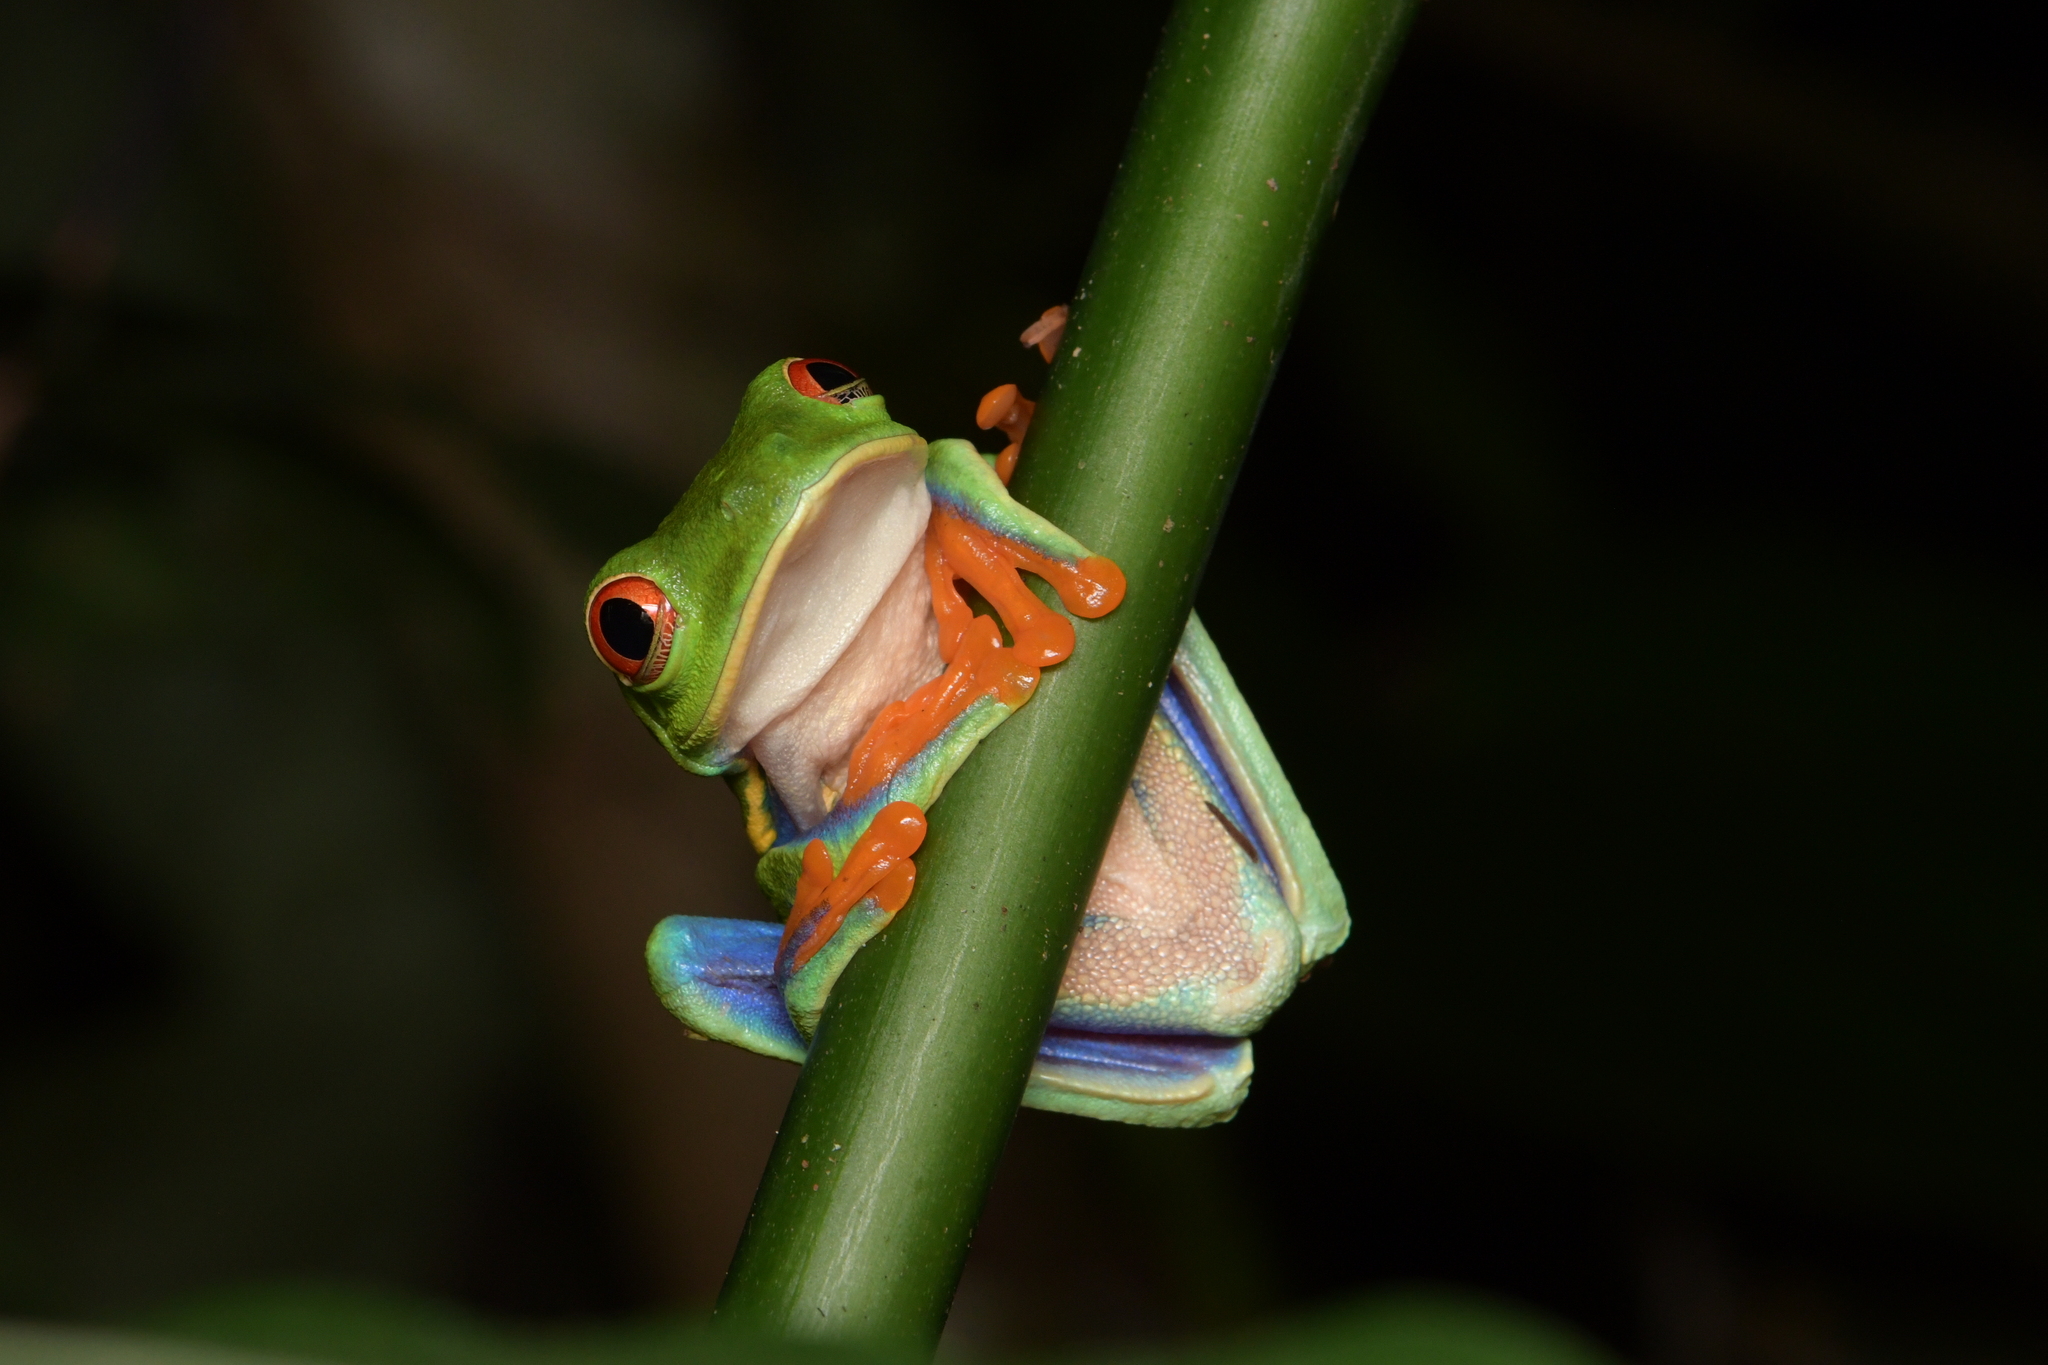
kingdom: Animalia
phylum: Chordata
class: Amphibia
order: Anura
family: Phyllomedusidae
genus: Agalychnis
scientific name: Agalychnis callidryas
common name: Red-eyed treefrog
